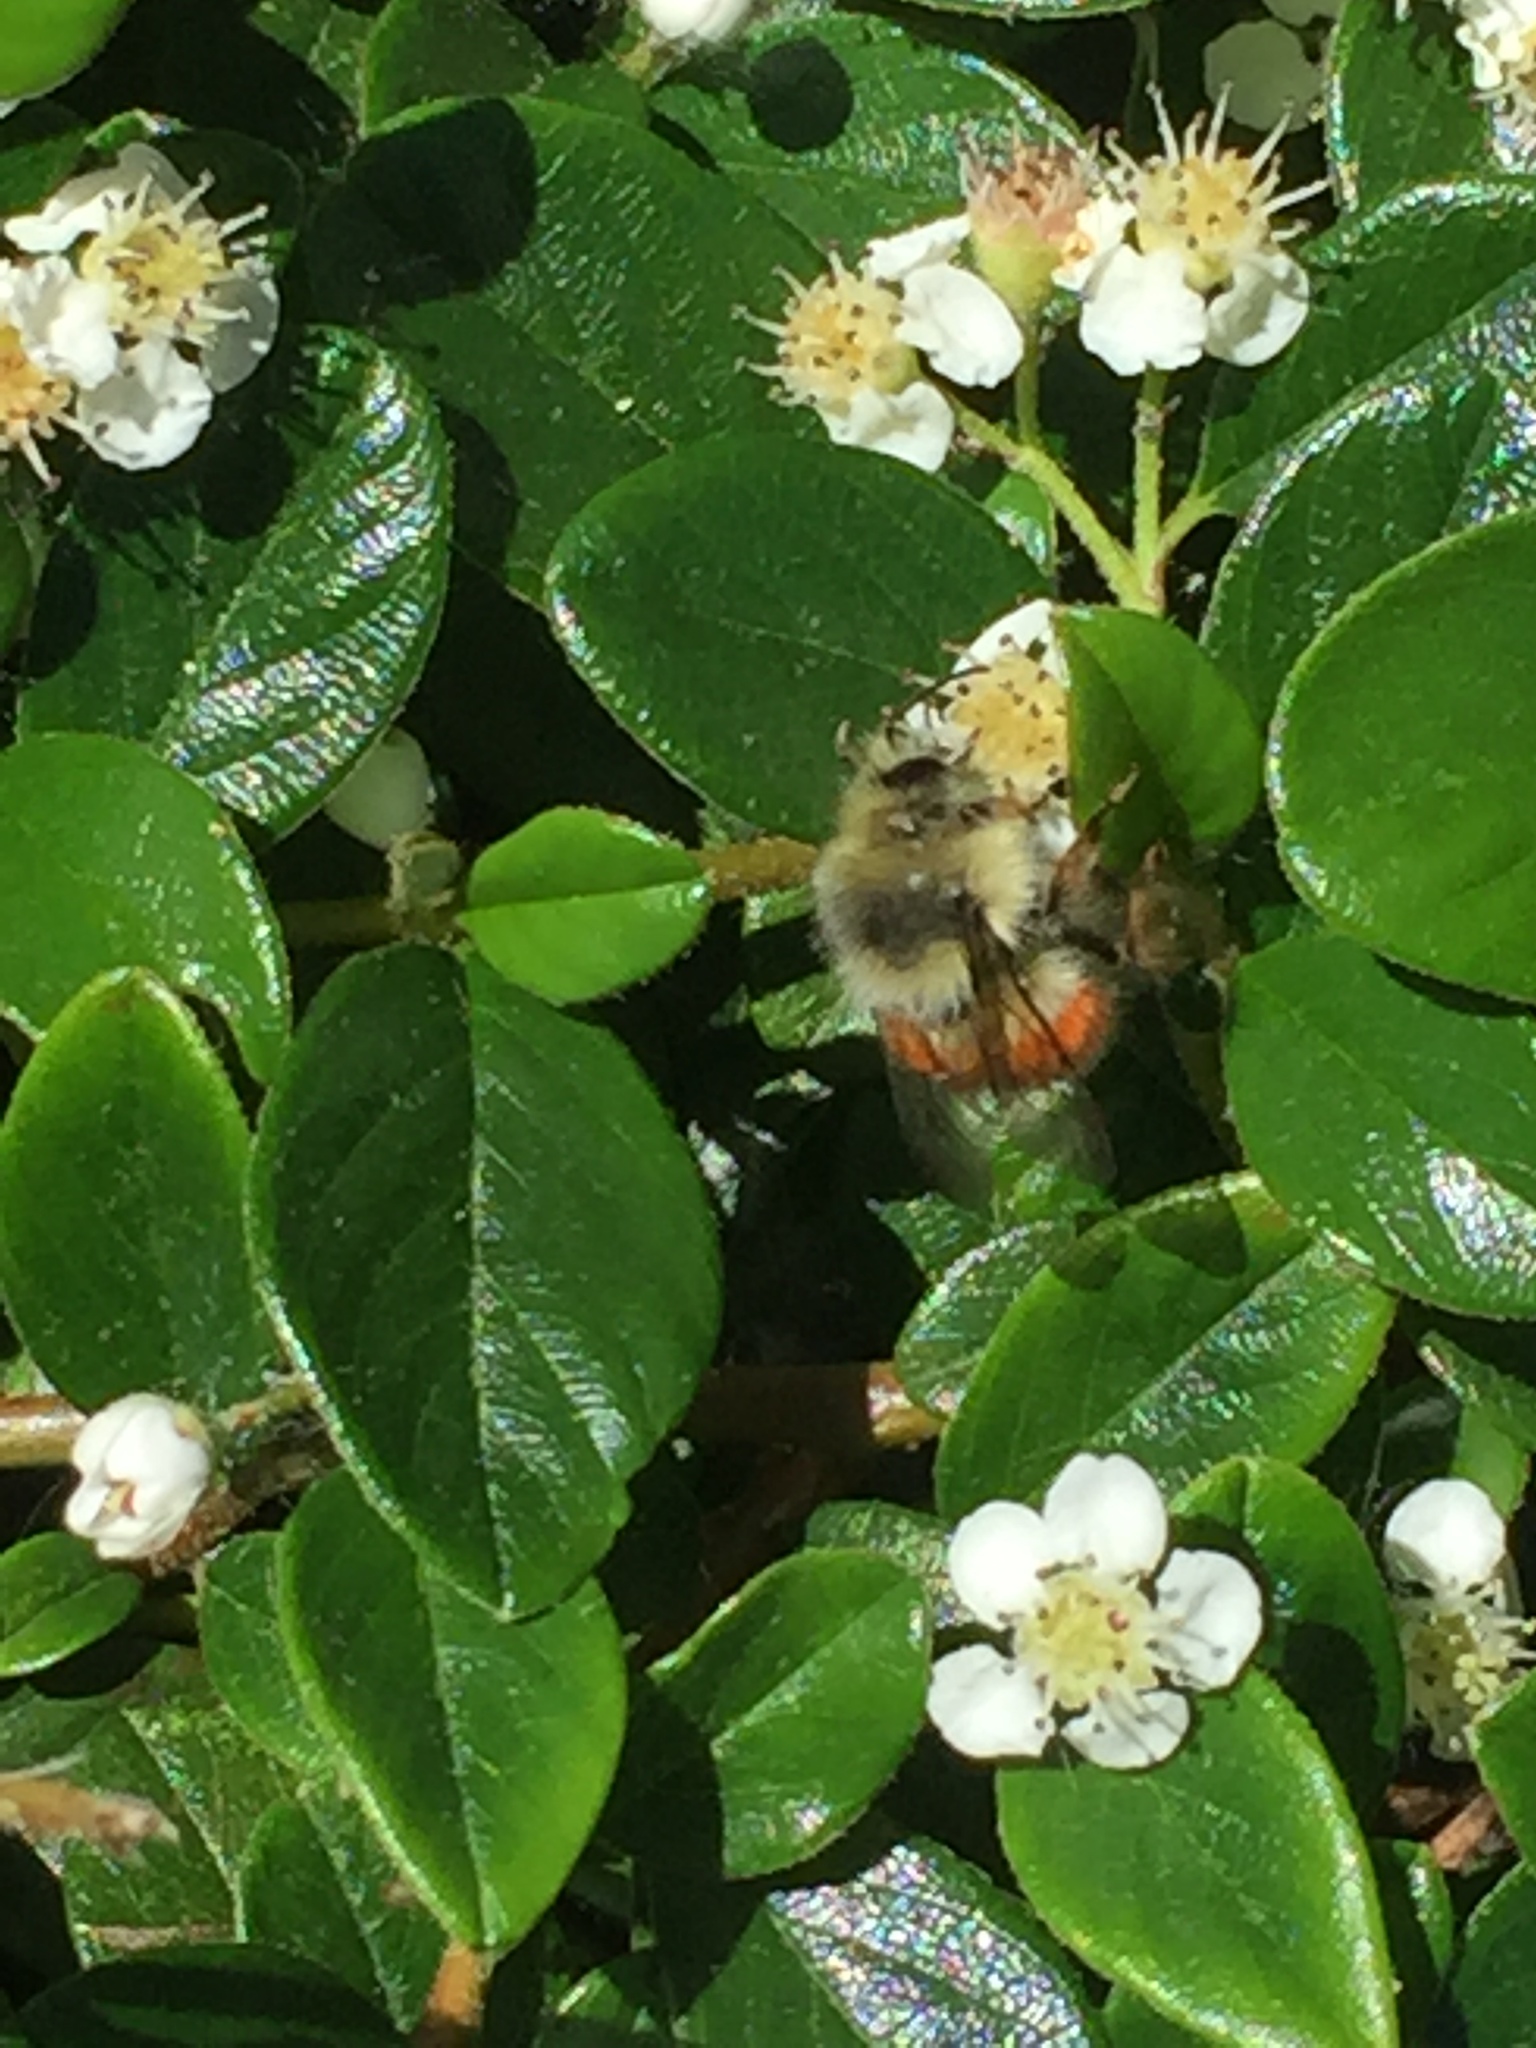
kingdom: Animalia
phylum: Arthropoda
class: Insecta
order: Hymenoptera
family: Apidae
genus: Bombus
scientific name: Bombus melanopygus
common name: Black tail bumble bee
